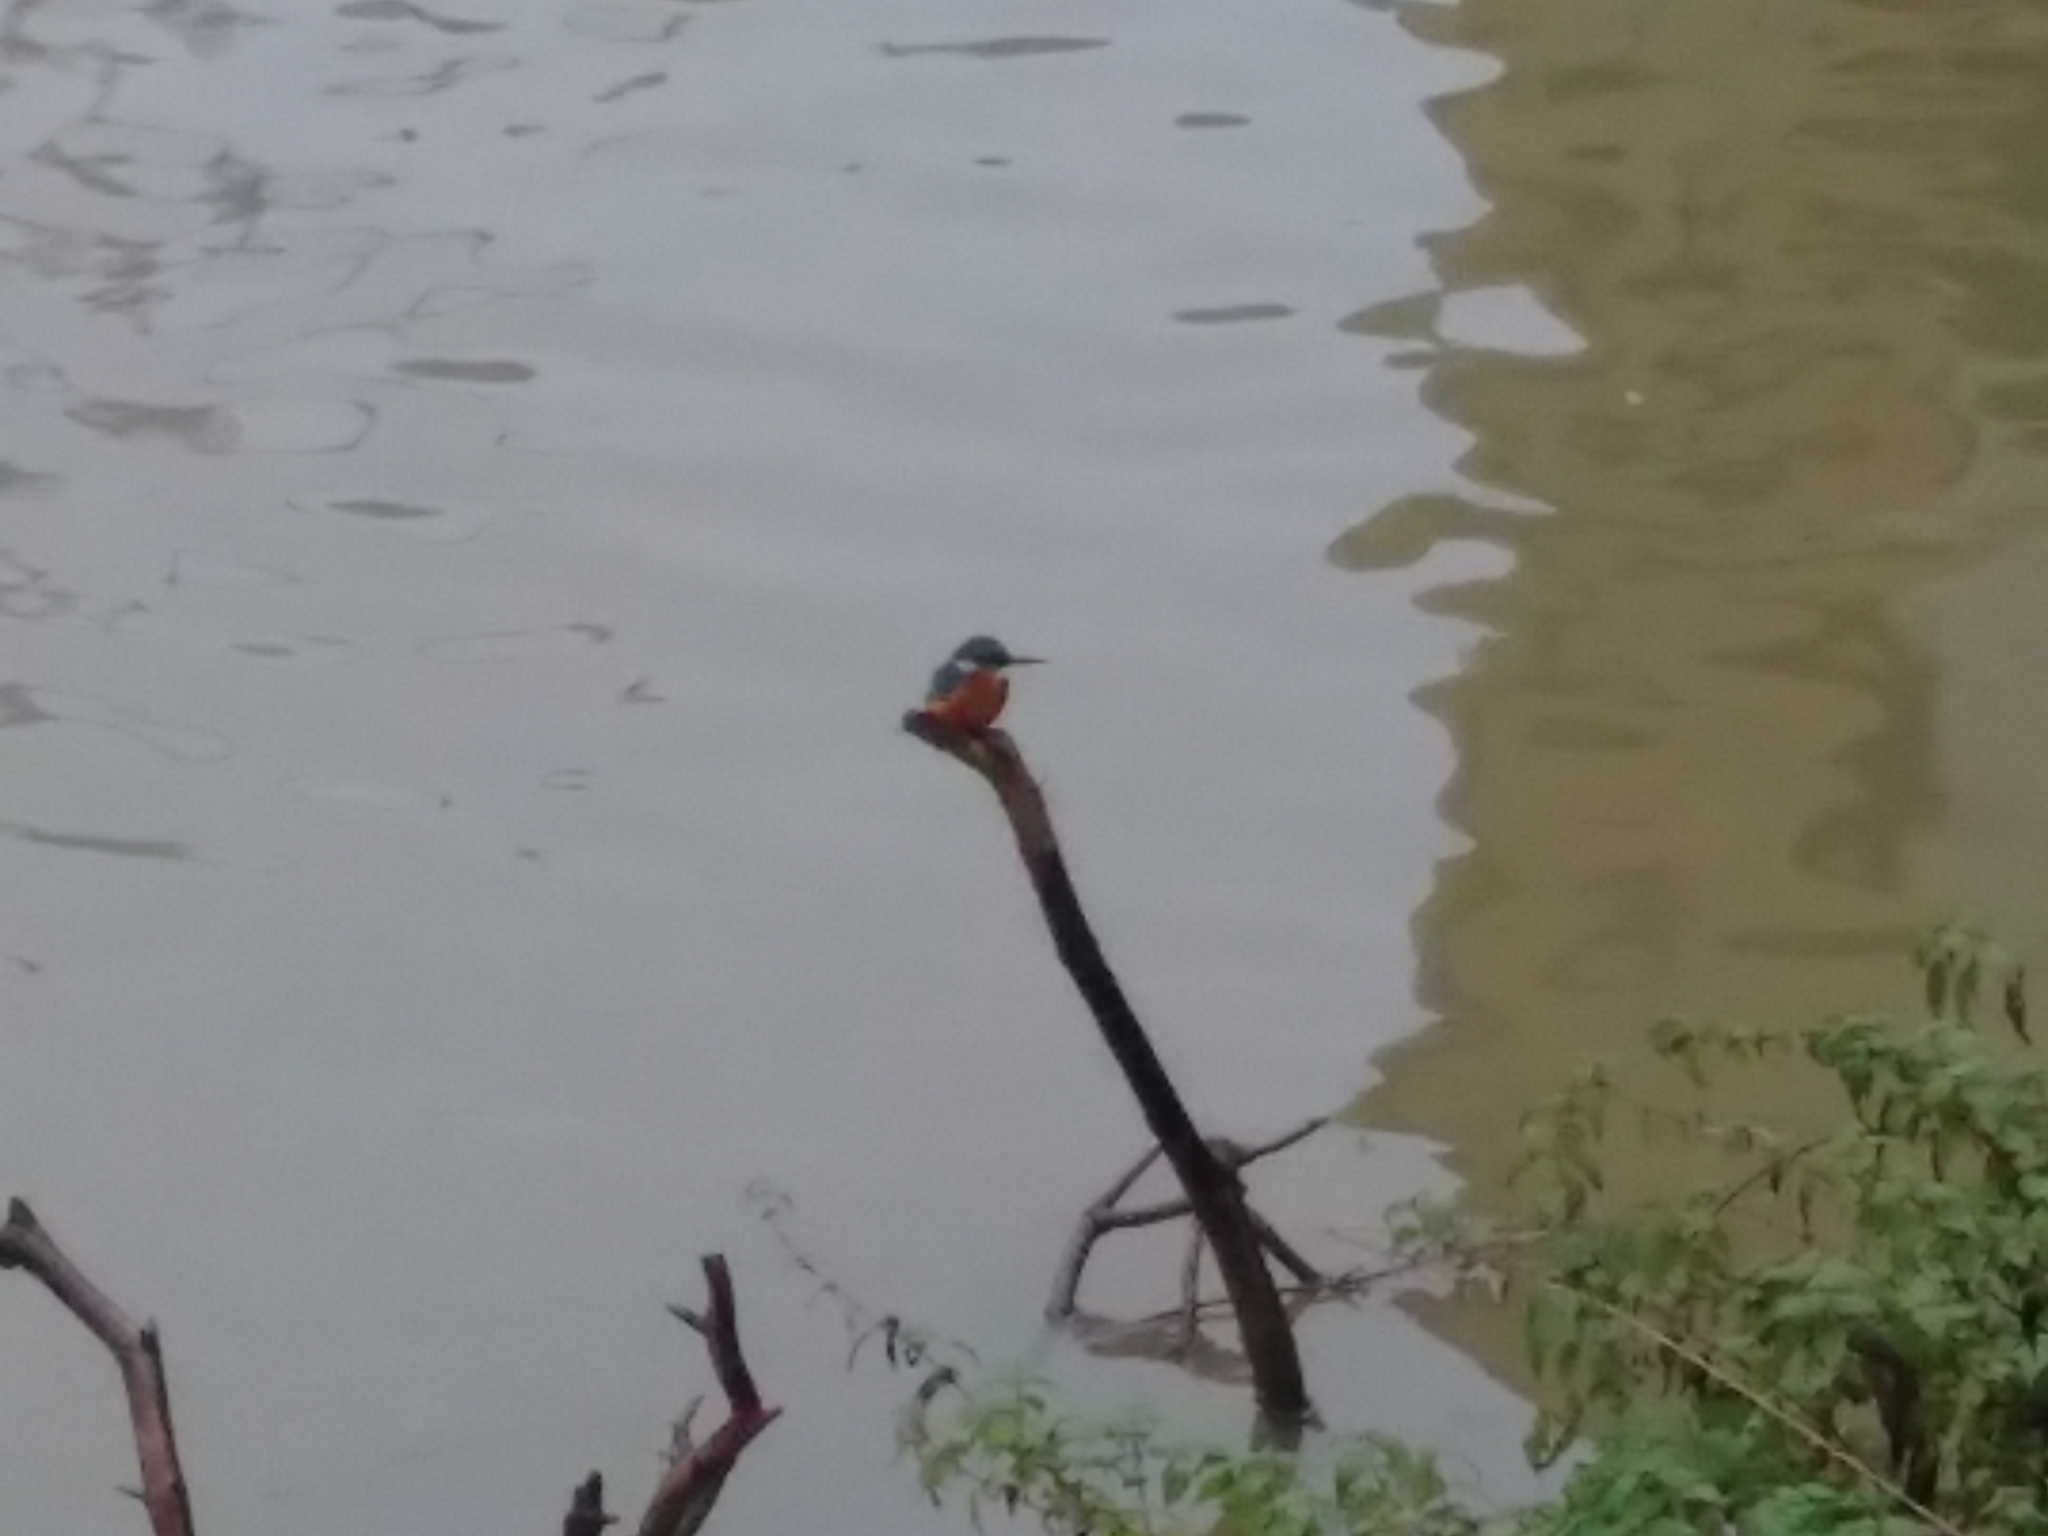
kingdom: Animalia
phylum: Chordata
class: Aves
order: Coraciiformes
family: Alcedinidae
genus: Alcedo
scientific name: Alcedo atthis
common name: Common kingfisher
